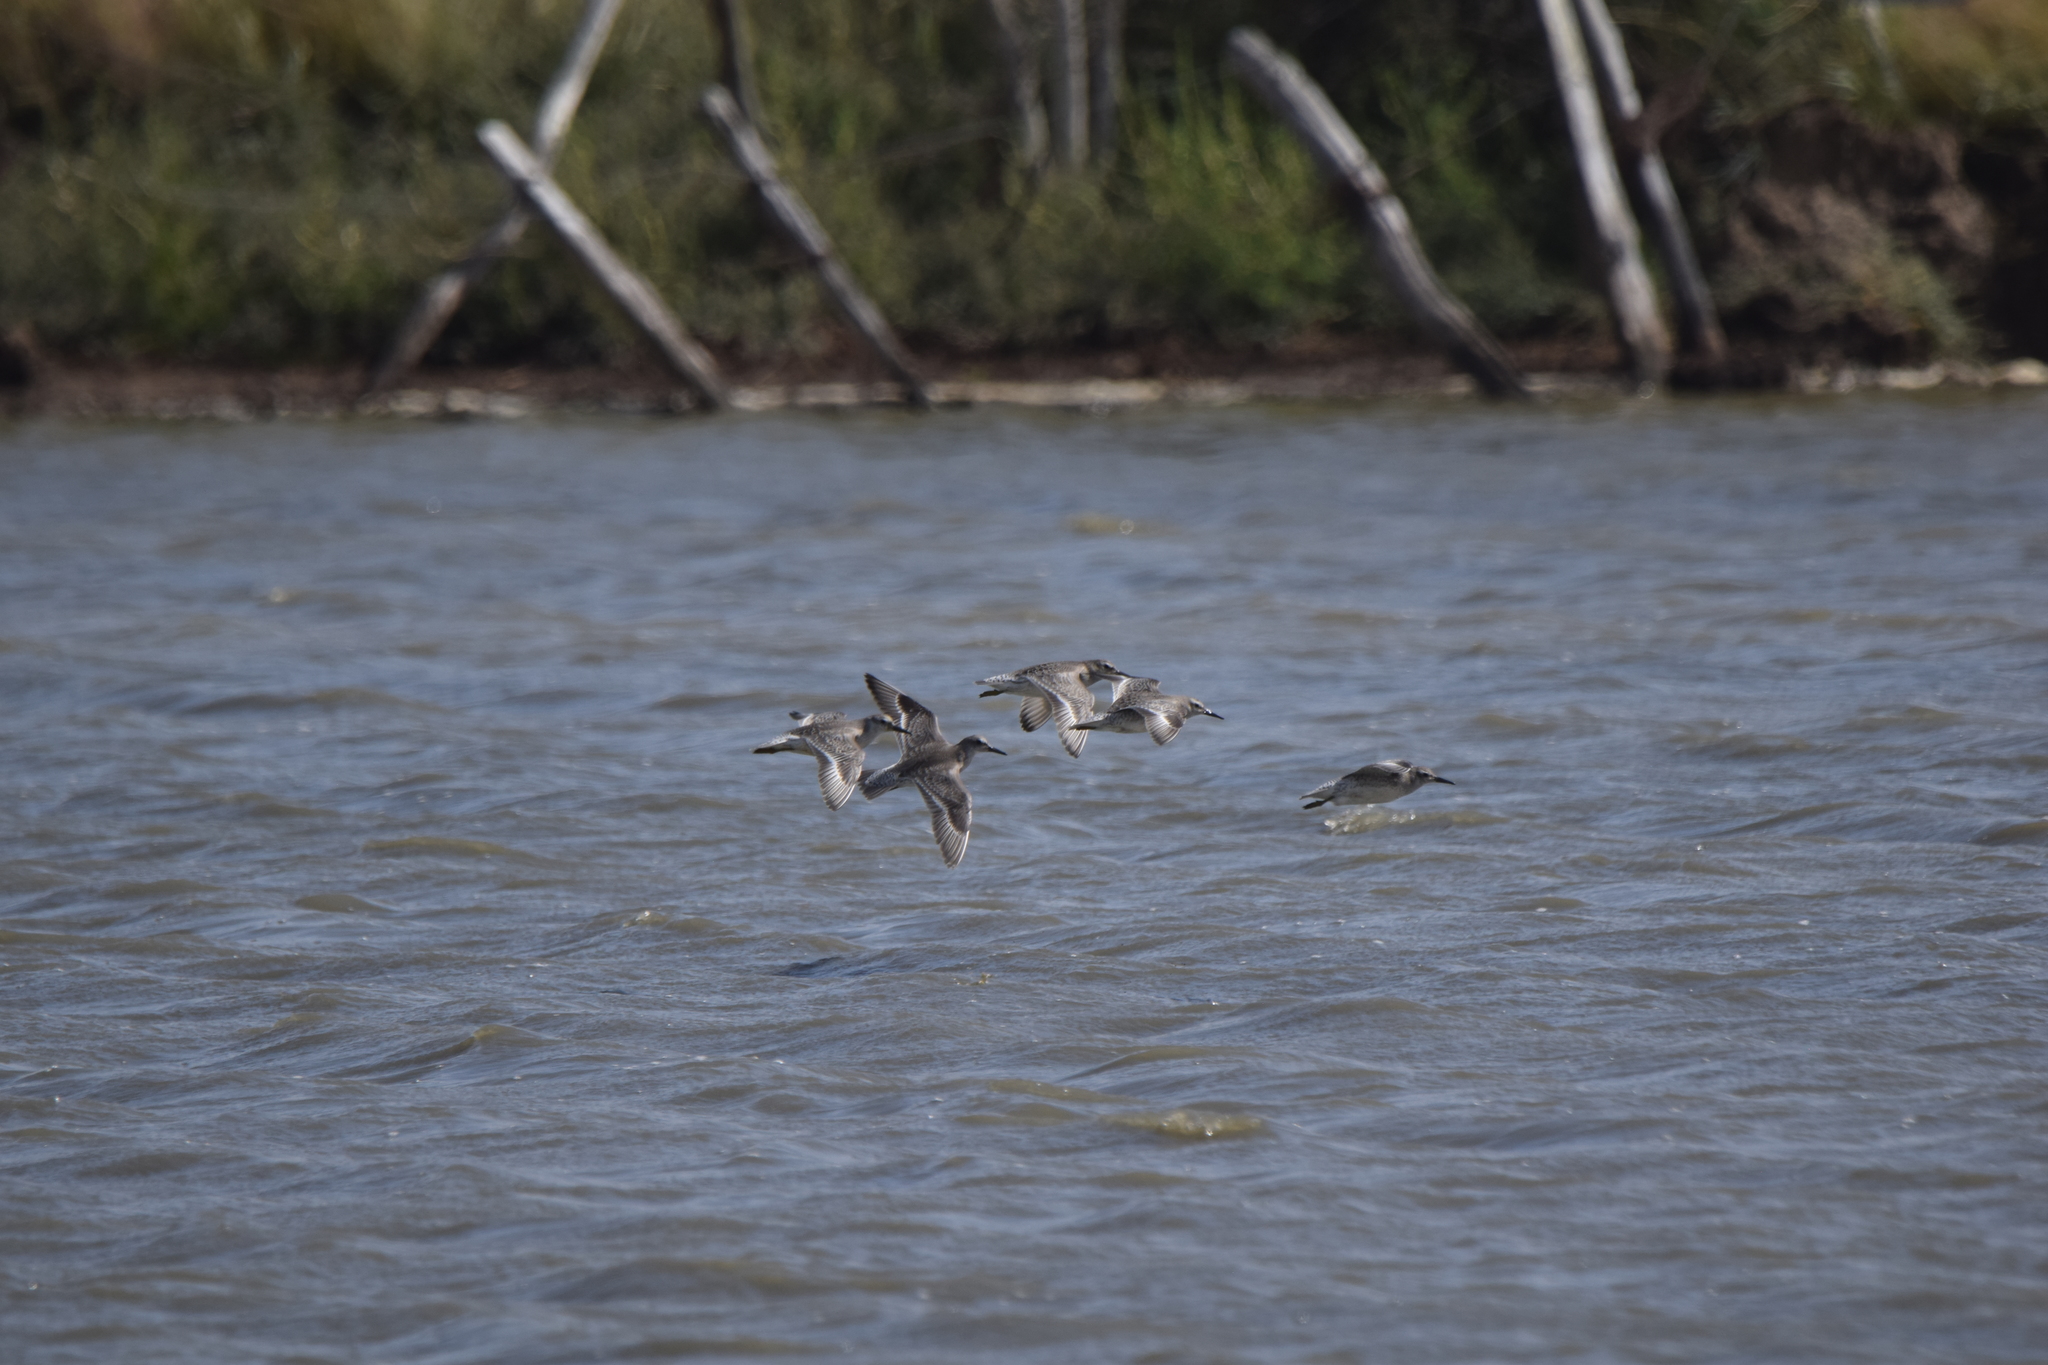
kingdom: Animalia
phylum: Chordata
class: Aves
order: Charadriiformes
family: Scolopacidae
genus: Calidris
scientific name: Calidris canutus
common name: Red knot
